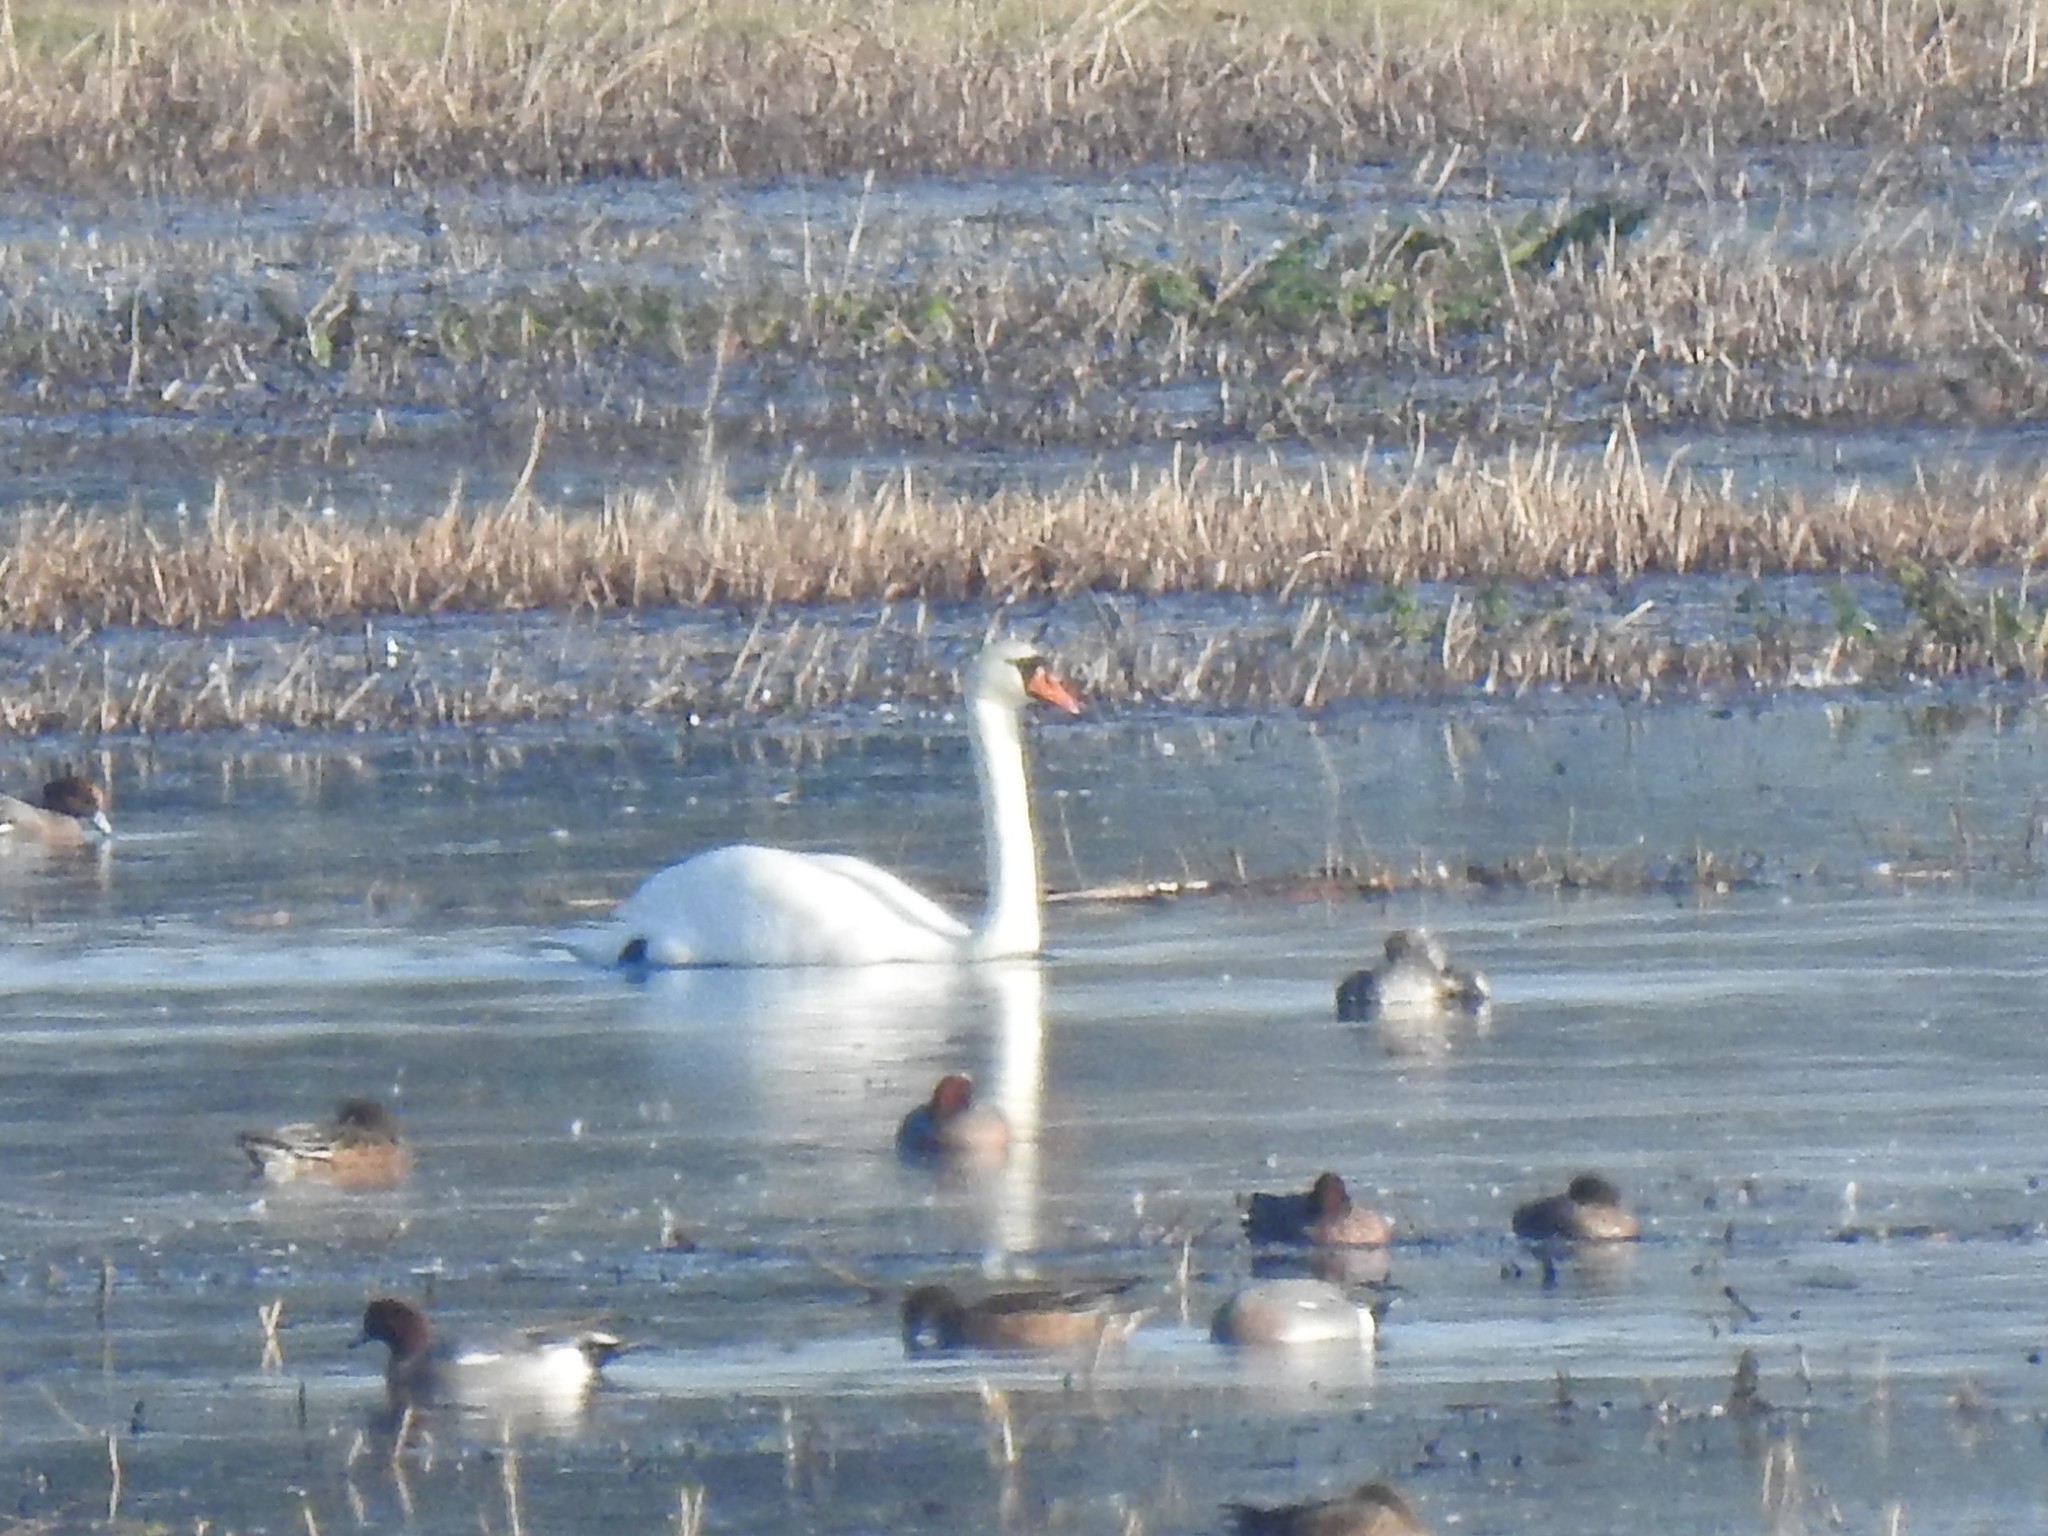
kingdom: Animalia
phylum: Chordata
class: Aves
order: Anseriformes
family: Anatidae
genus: Cygnus
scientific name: Cygnus olor
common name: Mute swan
